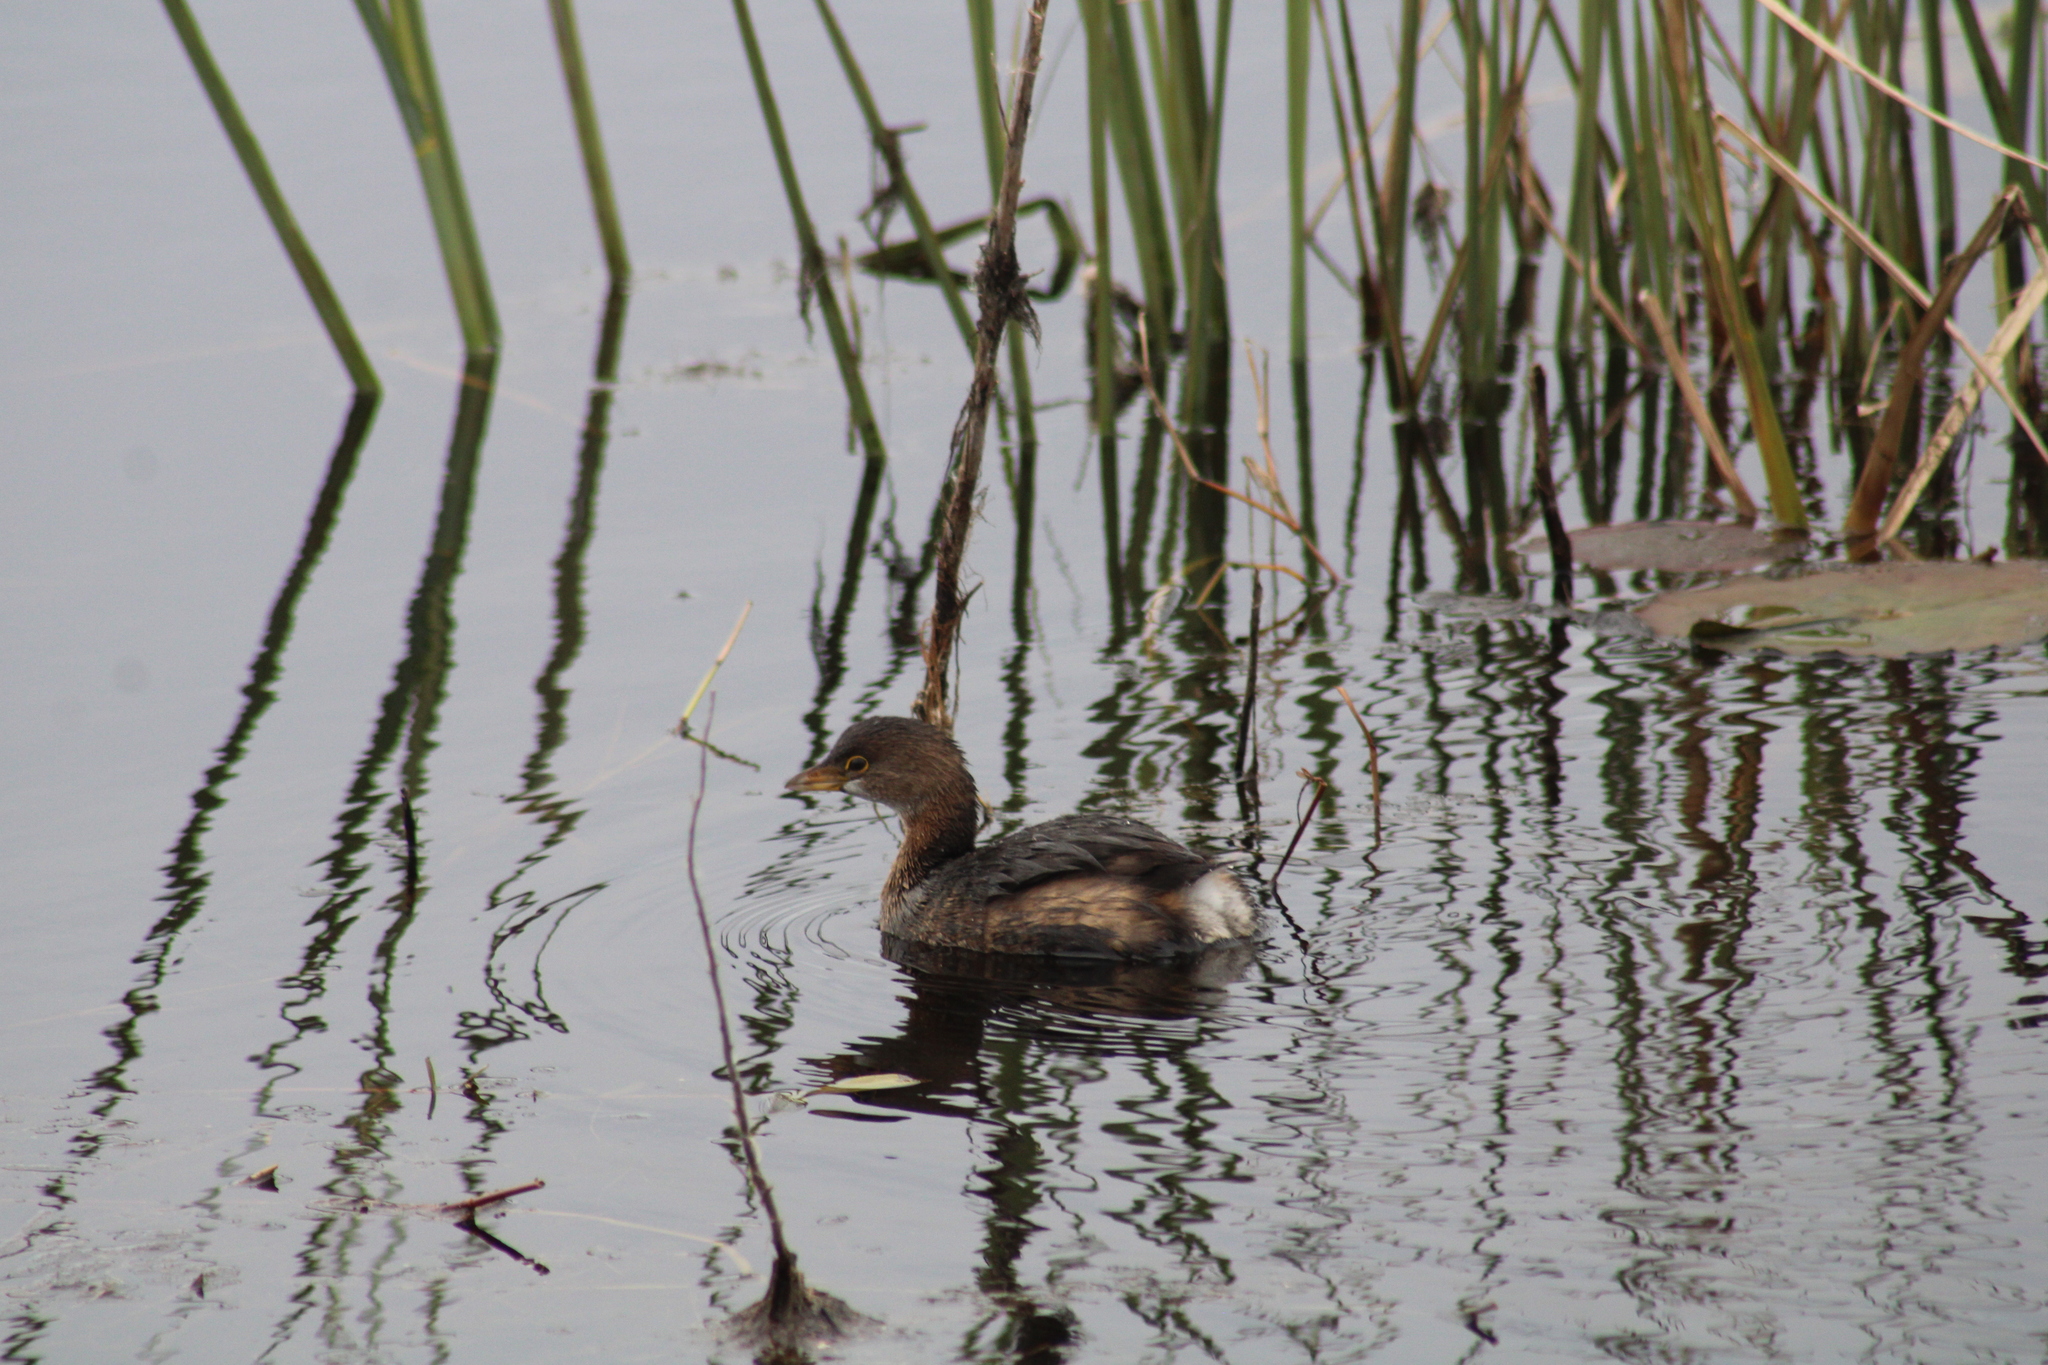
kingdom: Animalia
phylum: Chordata
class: Aves
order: Podicipediformes
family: Podicipedidae
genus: Podilymbus
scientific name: Podilymbus podiceps
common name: Pied-billed grebe
